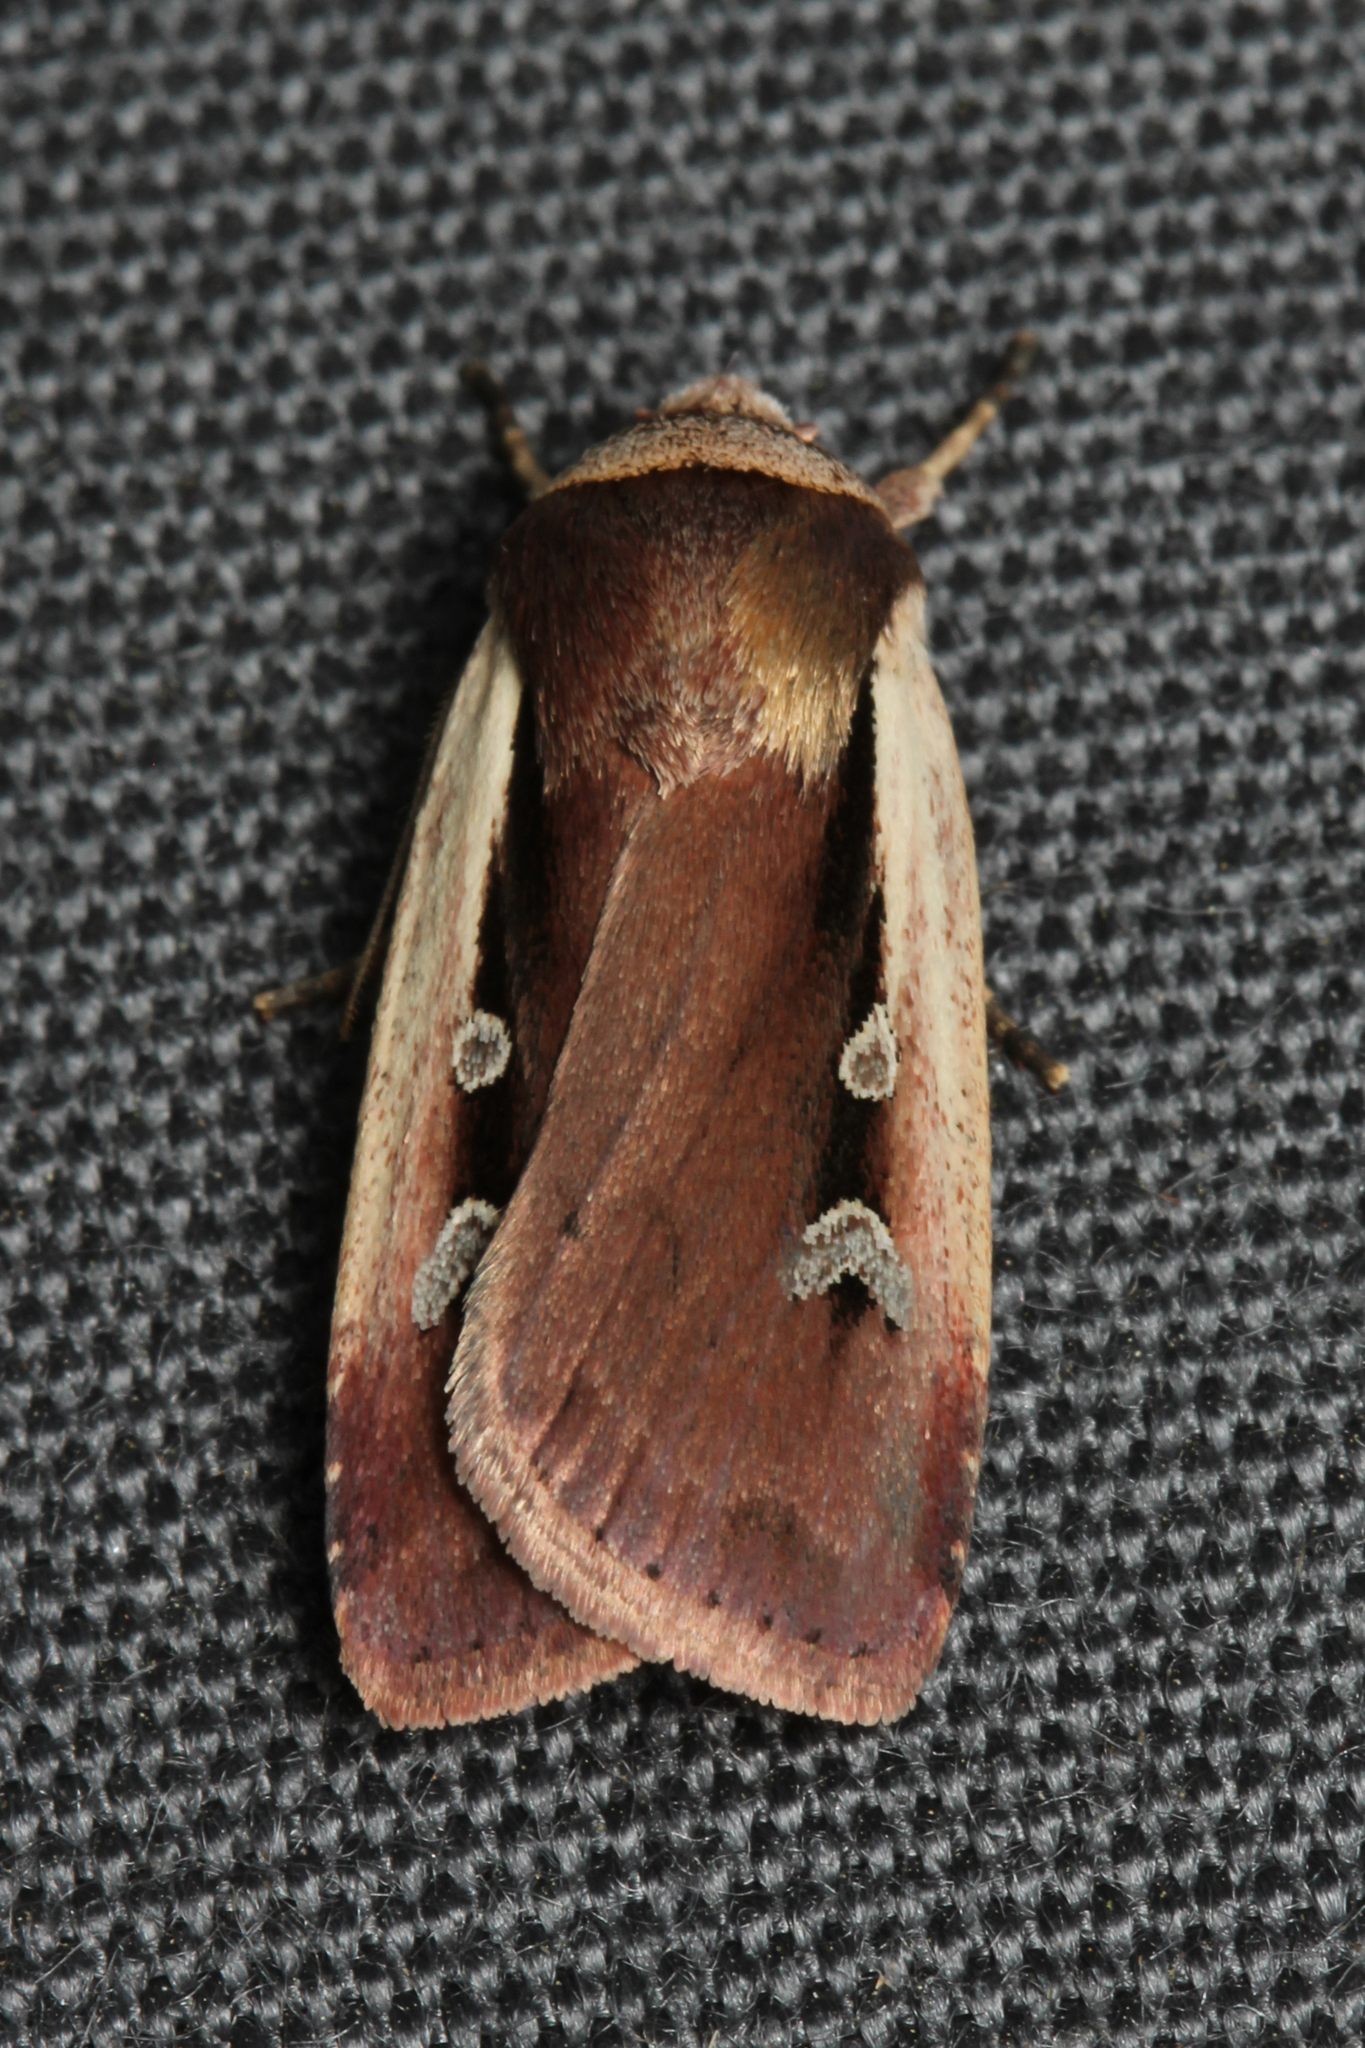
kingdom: Animalia
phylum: Arthropoda
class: Insecta
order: Lepidoptera
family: Noctuidae
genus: Ochropleura
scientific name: Ochropleura plecta
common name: Flame shoulder
